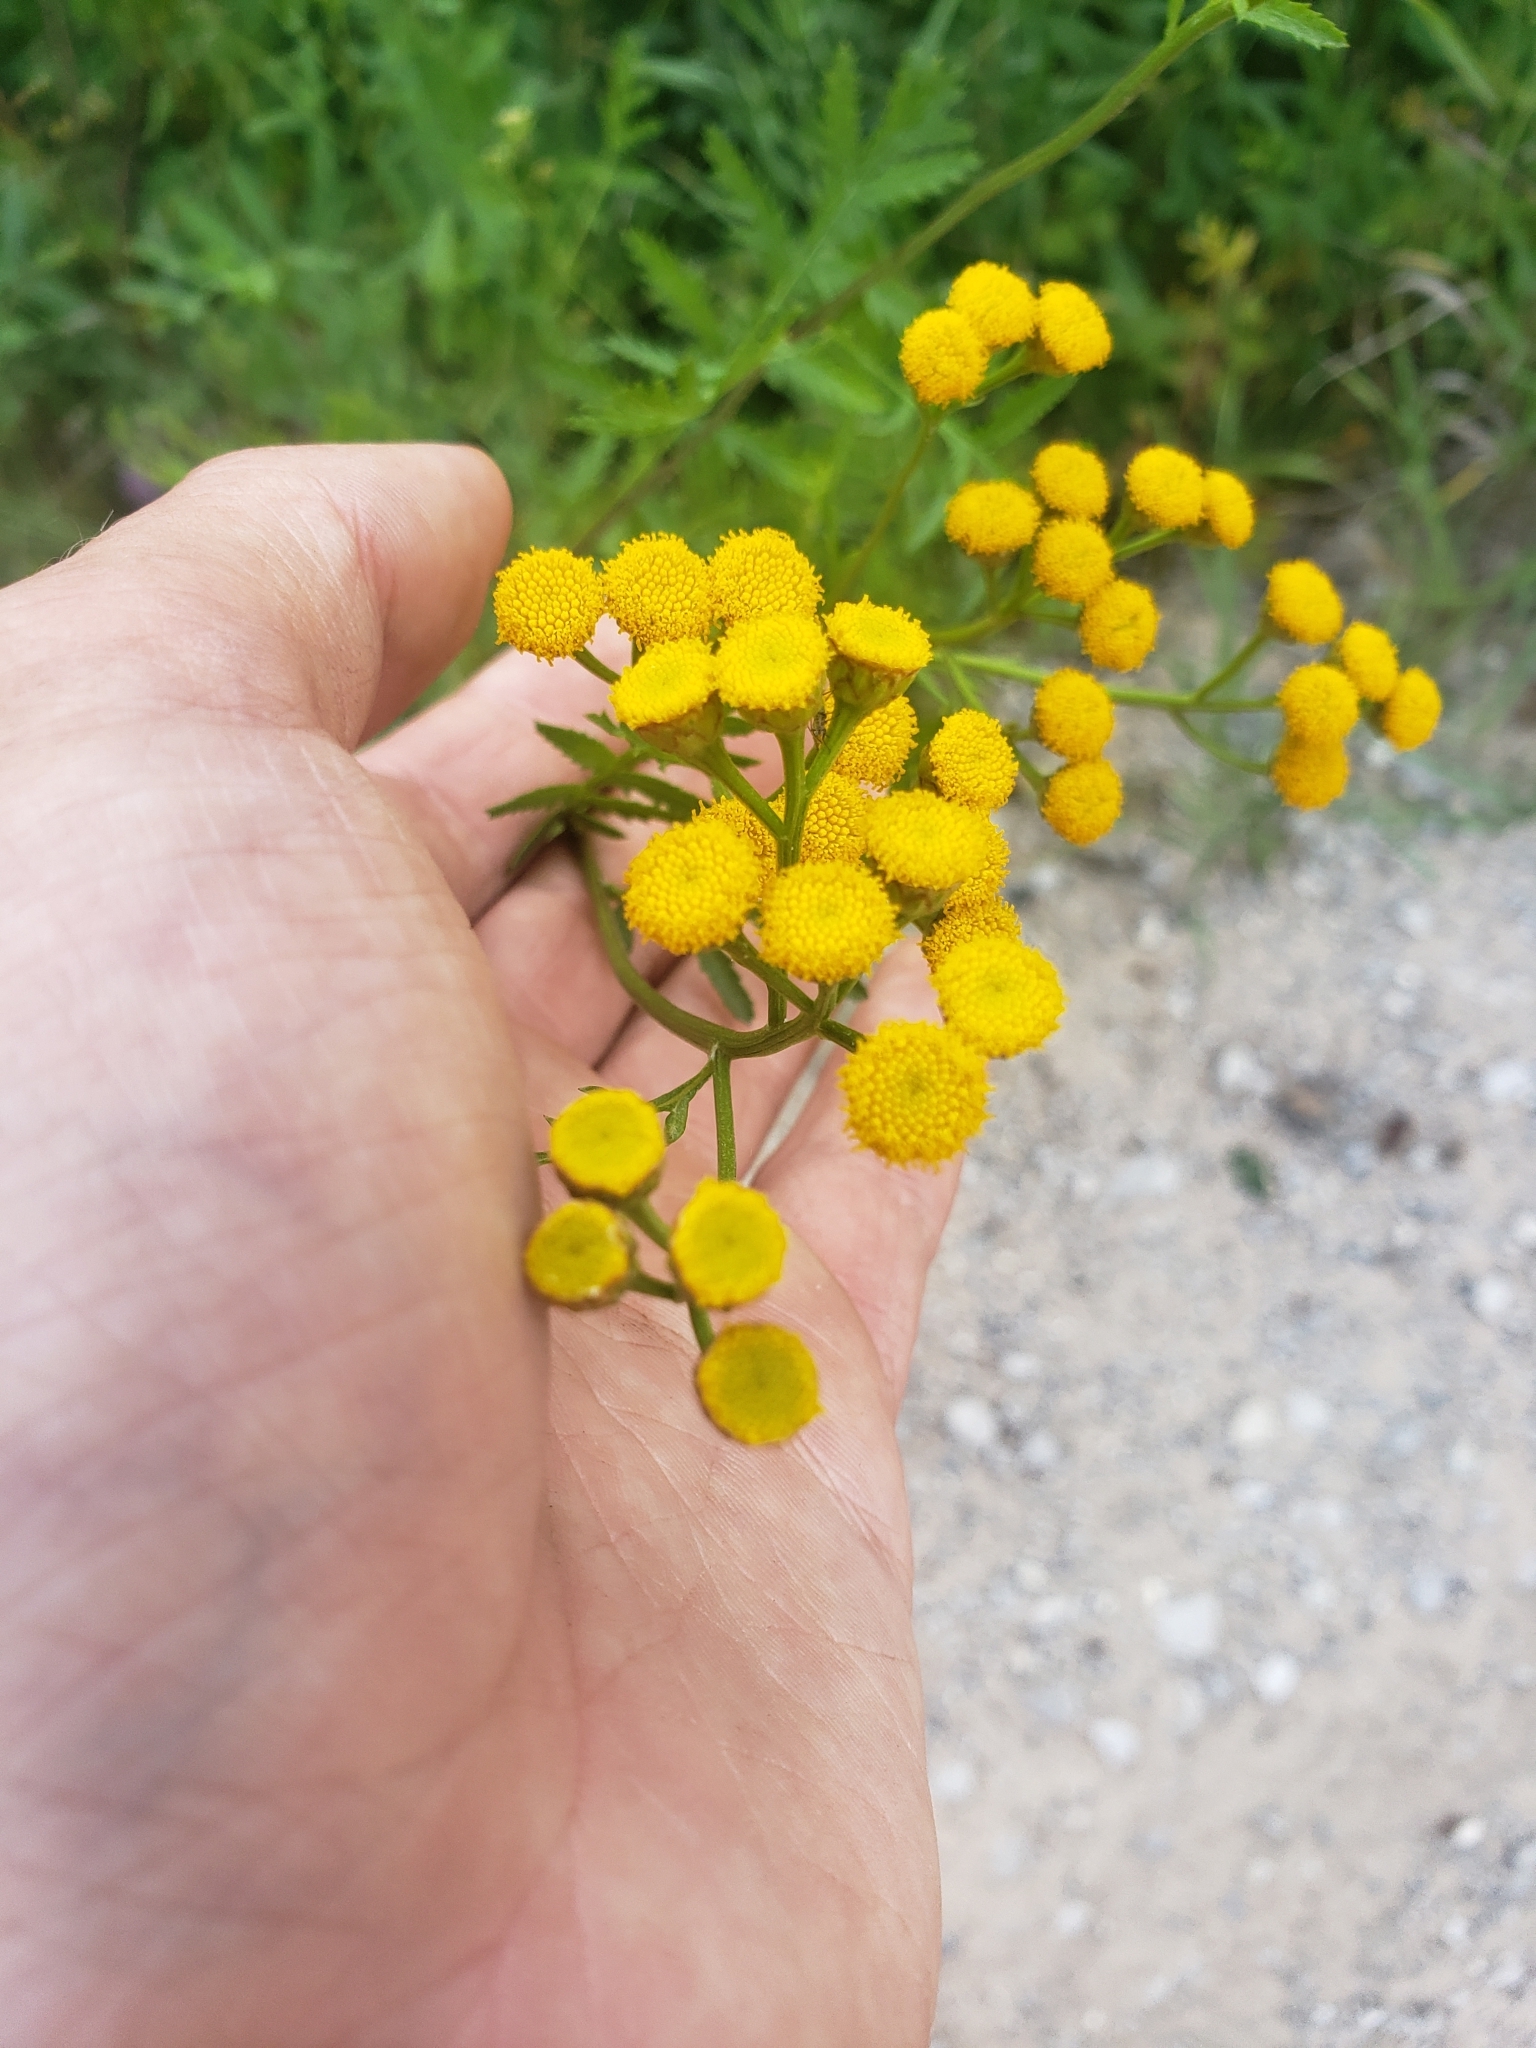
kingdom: Plantae
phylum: Tracheophyta
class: Magnoliopsida
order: Asterales
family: Asteraceae
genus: Tanacetum
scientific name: Tanacetum vulgare
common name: Common tansy
